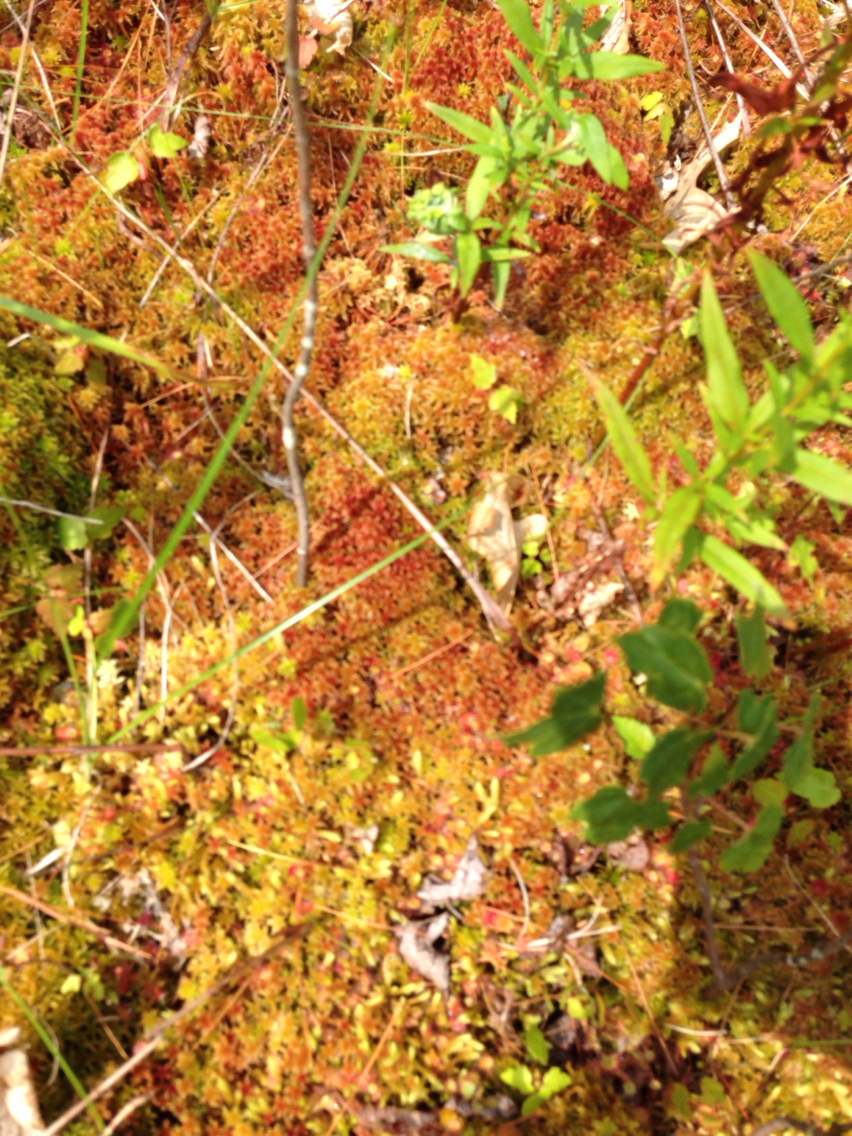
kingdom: Plantae
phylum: Bryophyta
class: Sphagnopsida
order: Sphagnales
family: Sphagnaceae
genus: Sphagnum
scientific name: Sphagnum capillifolium
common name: Small red peat moss
